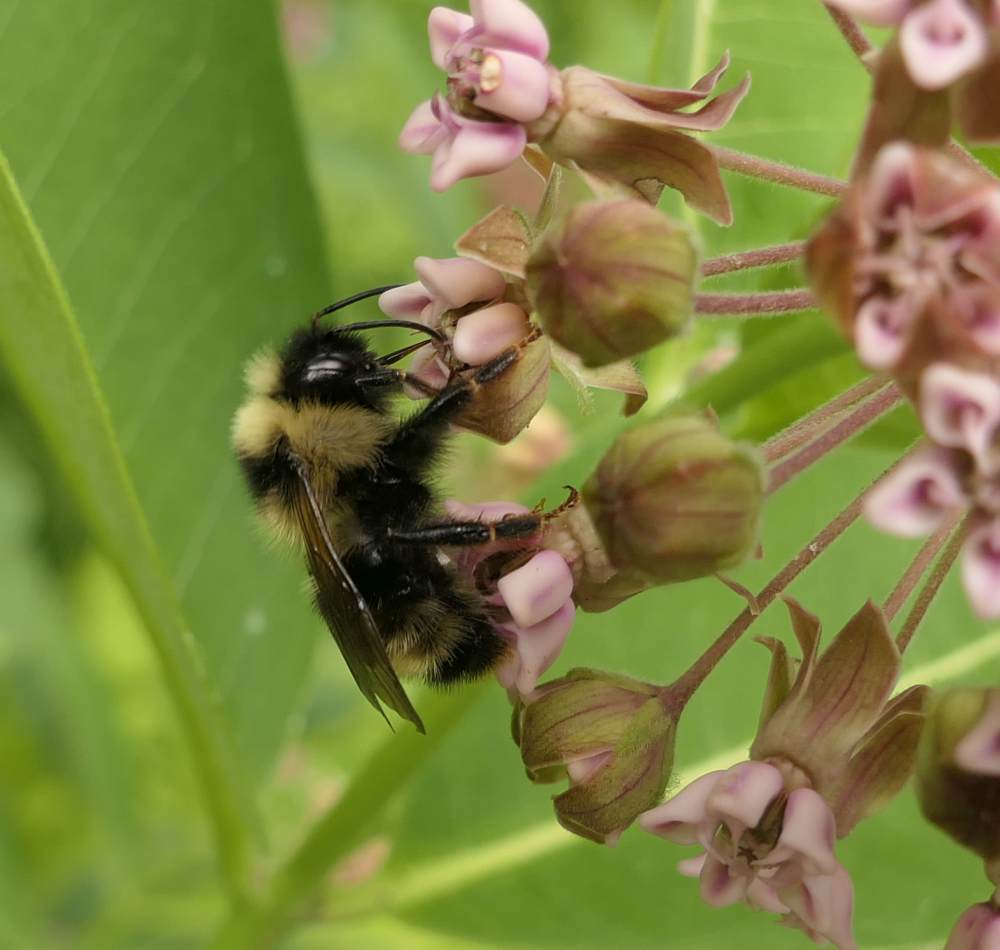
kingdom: Animalia
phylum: Arthropoda
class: Insecta
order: Hymenoptera
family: Apidae
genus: Bombus
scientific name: Bombus flavidus
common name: Fernald cuckoo bumble bee
